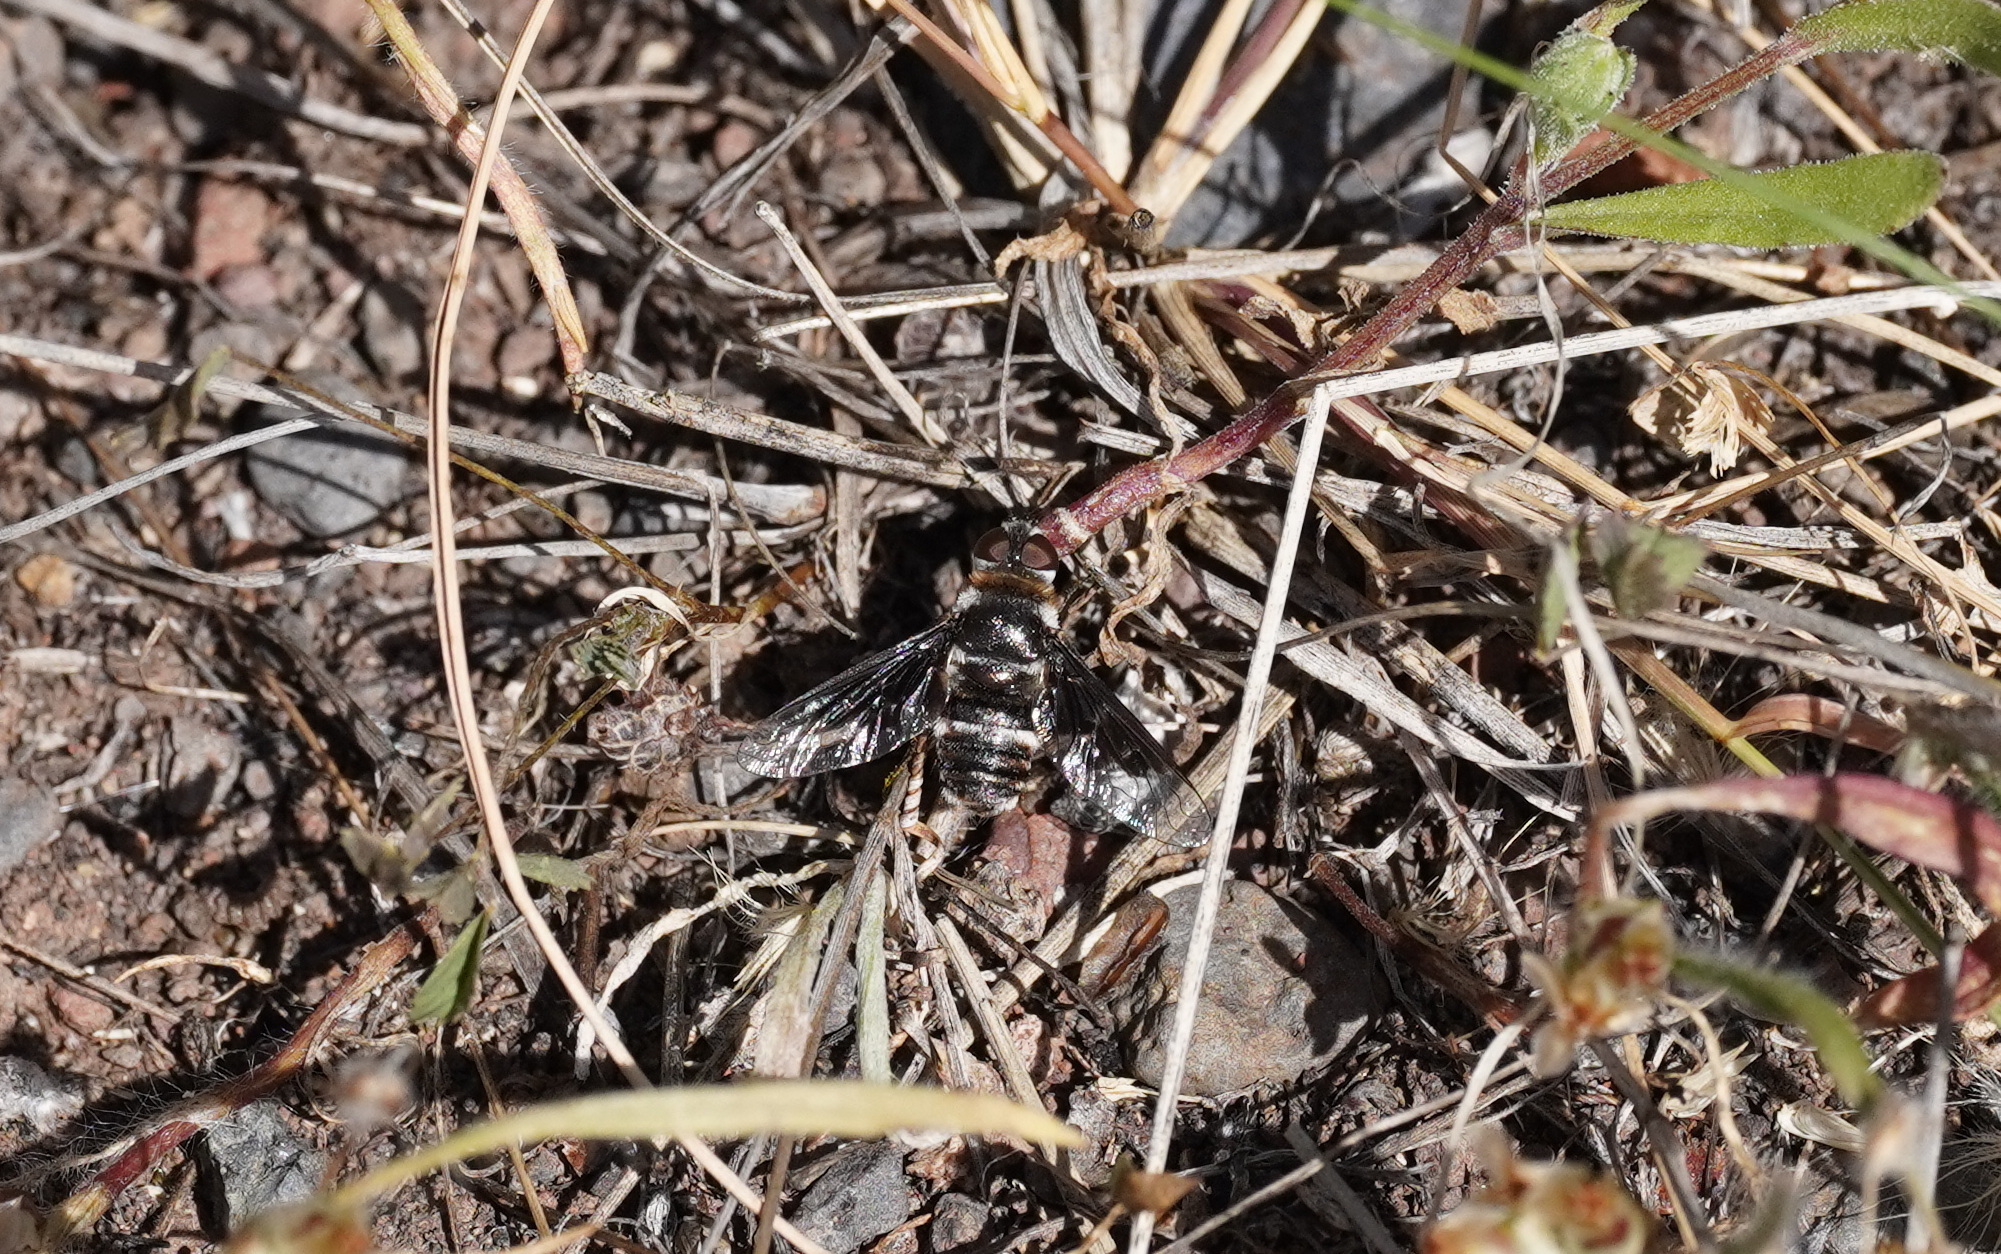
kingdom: Animalia
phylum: Arthropoda
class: Insecta
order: Diptera
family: Bombyliidae
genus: Thyridanthrax
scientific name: Thyridanthrax indigenus
